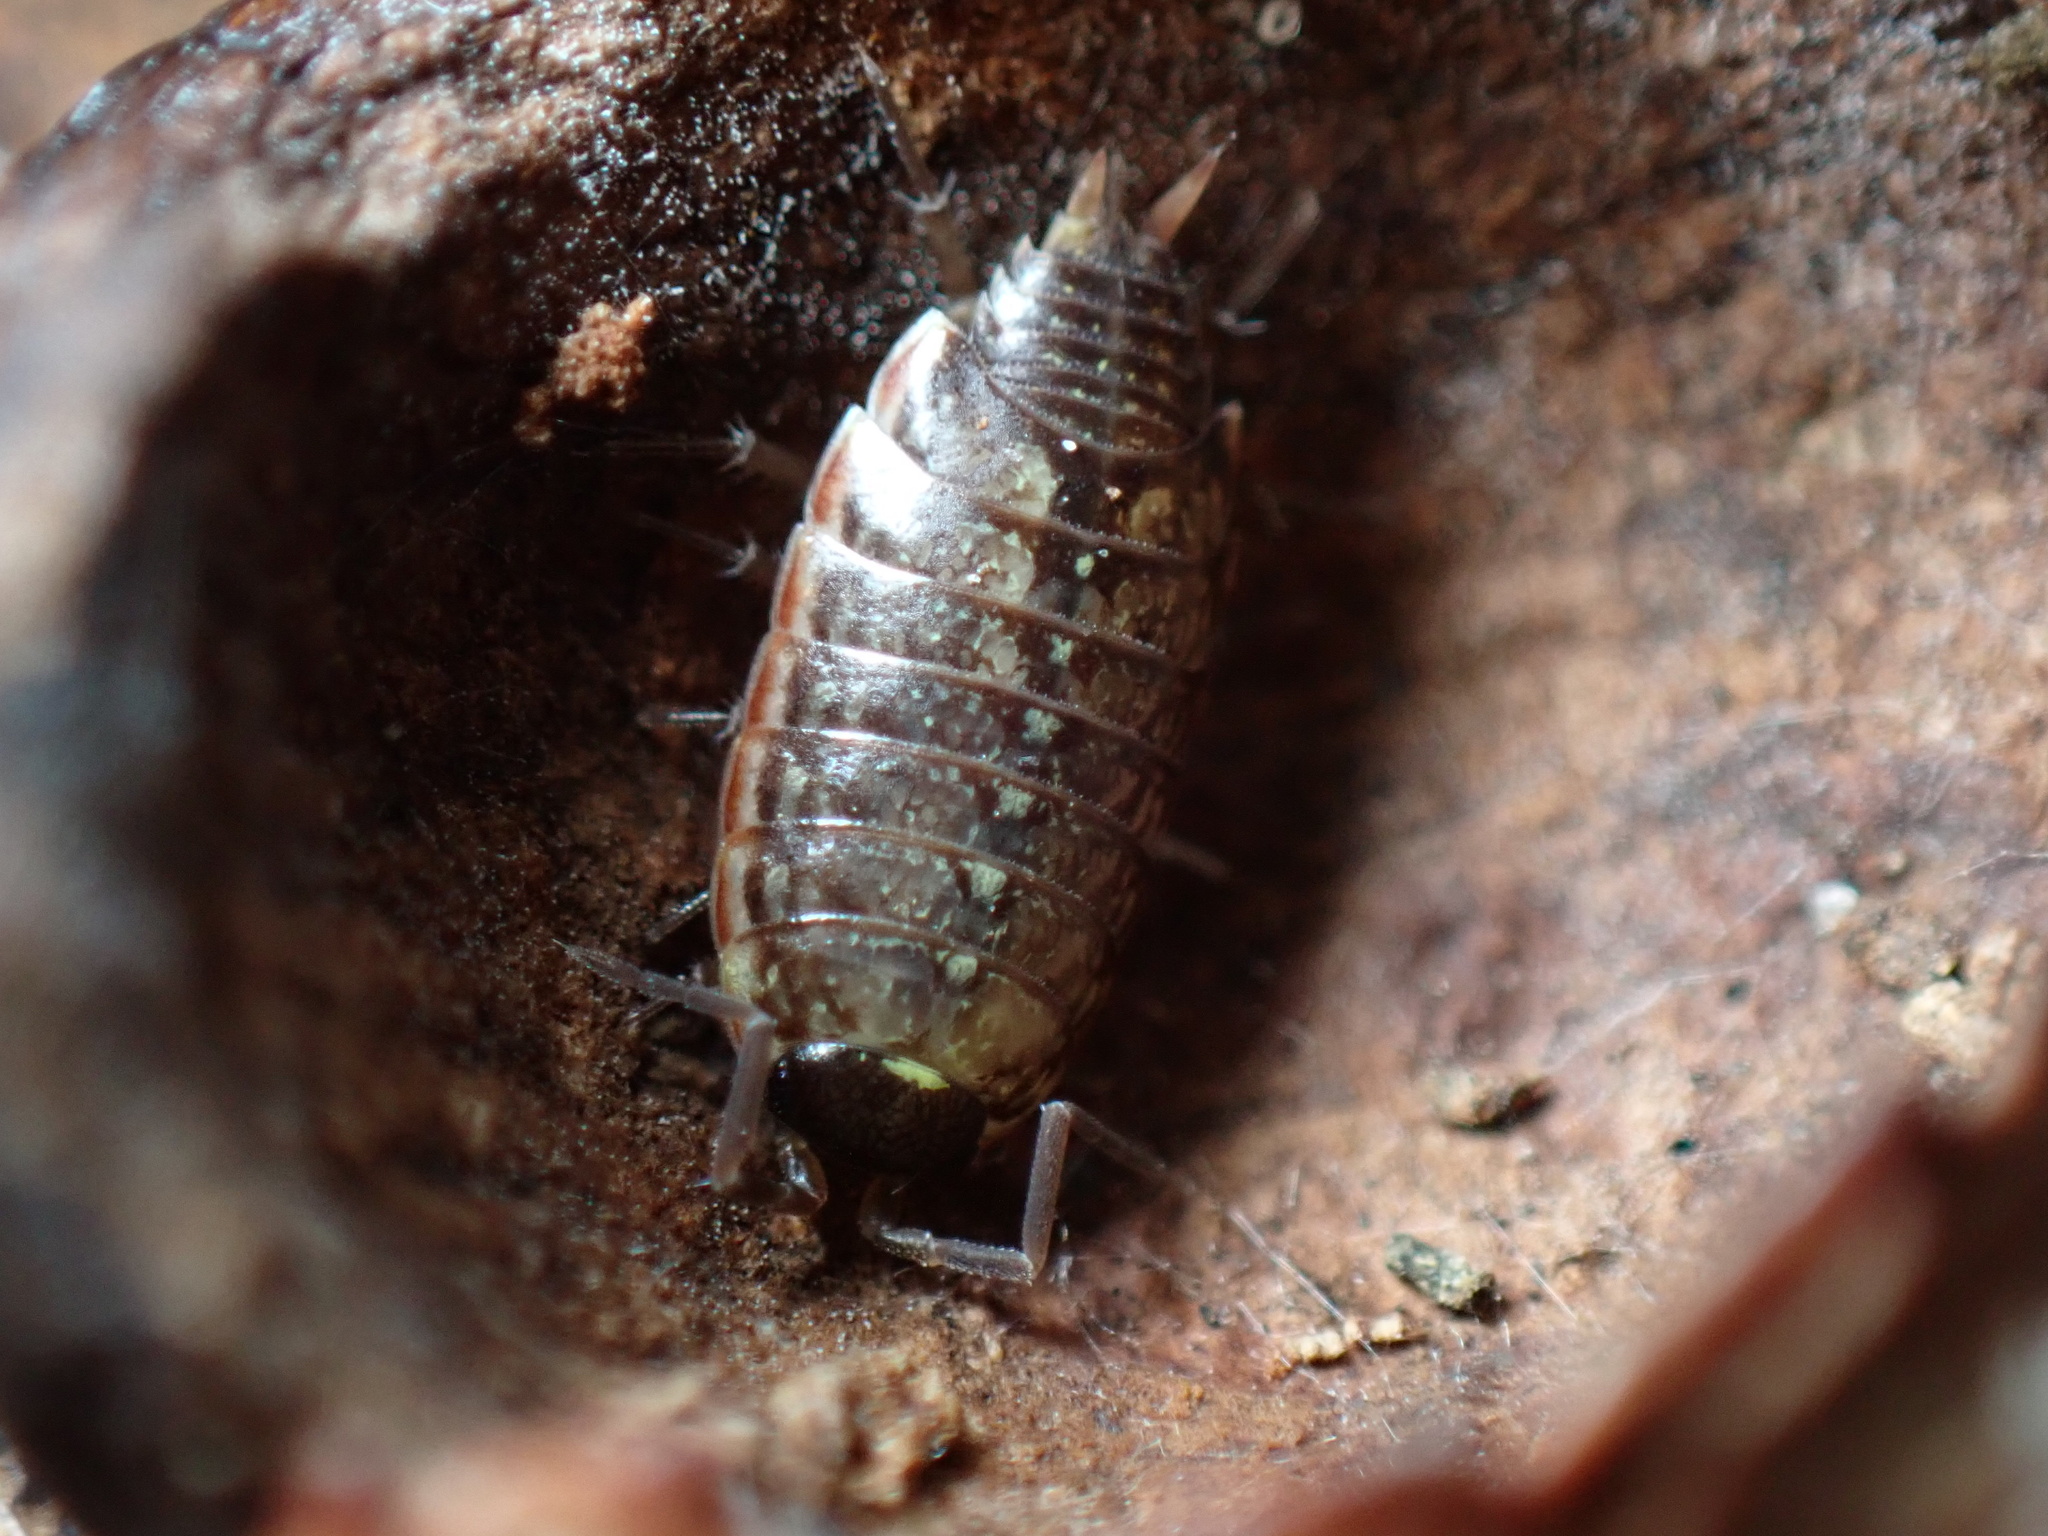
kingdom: Animalia
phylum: Arthropoda
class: Malacostraca
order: Isopoda
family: Philosciidae
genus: Philoscia
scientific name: Philoscia muscorum
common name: Common striped woodlouse
